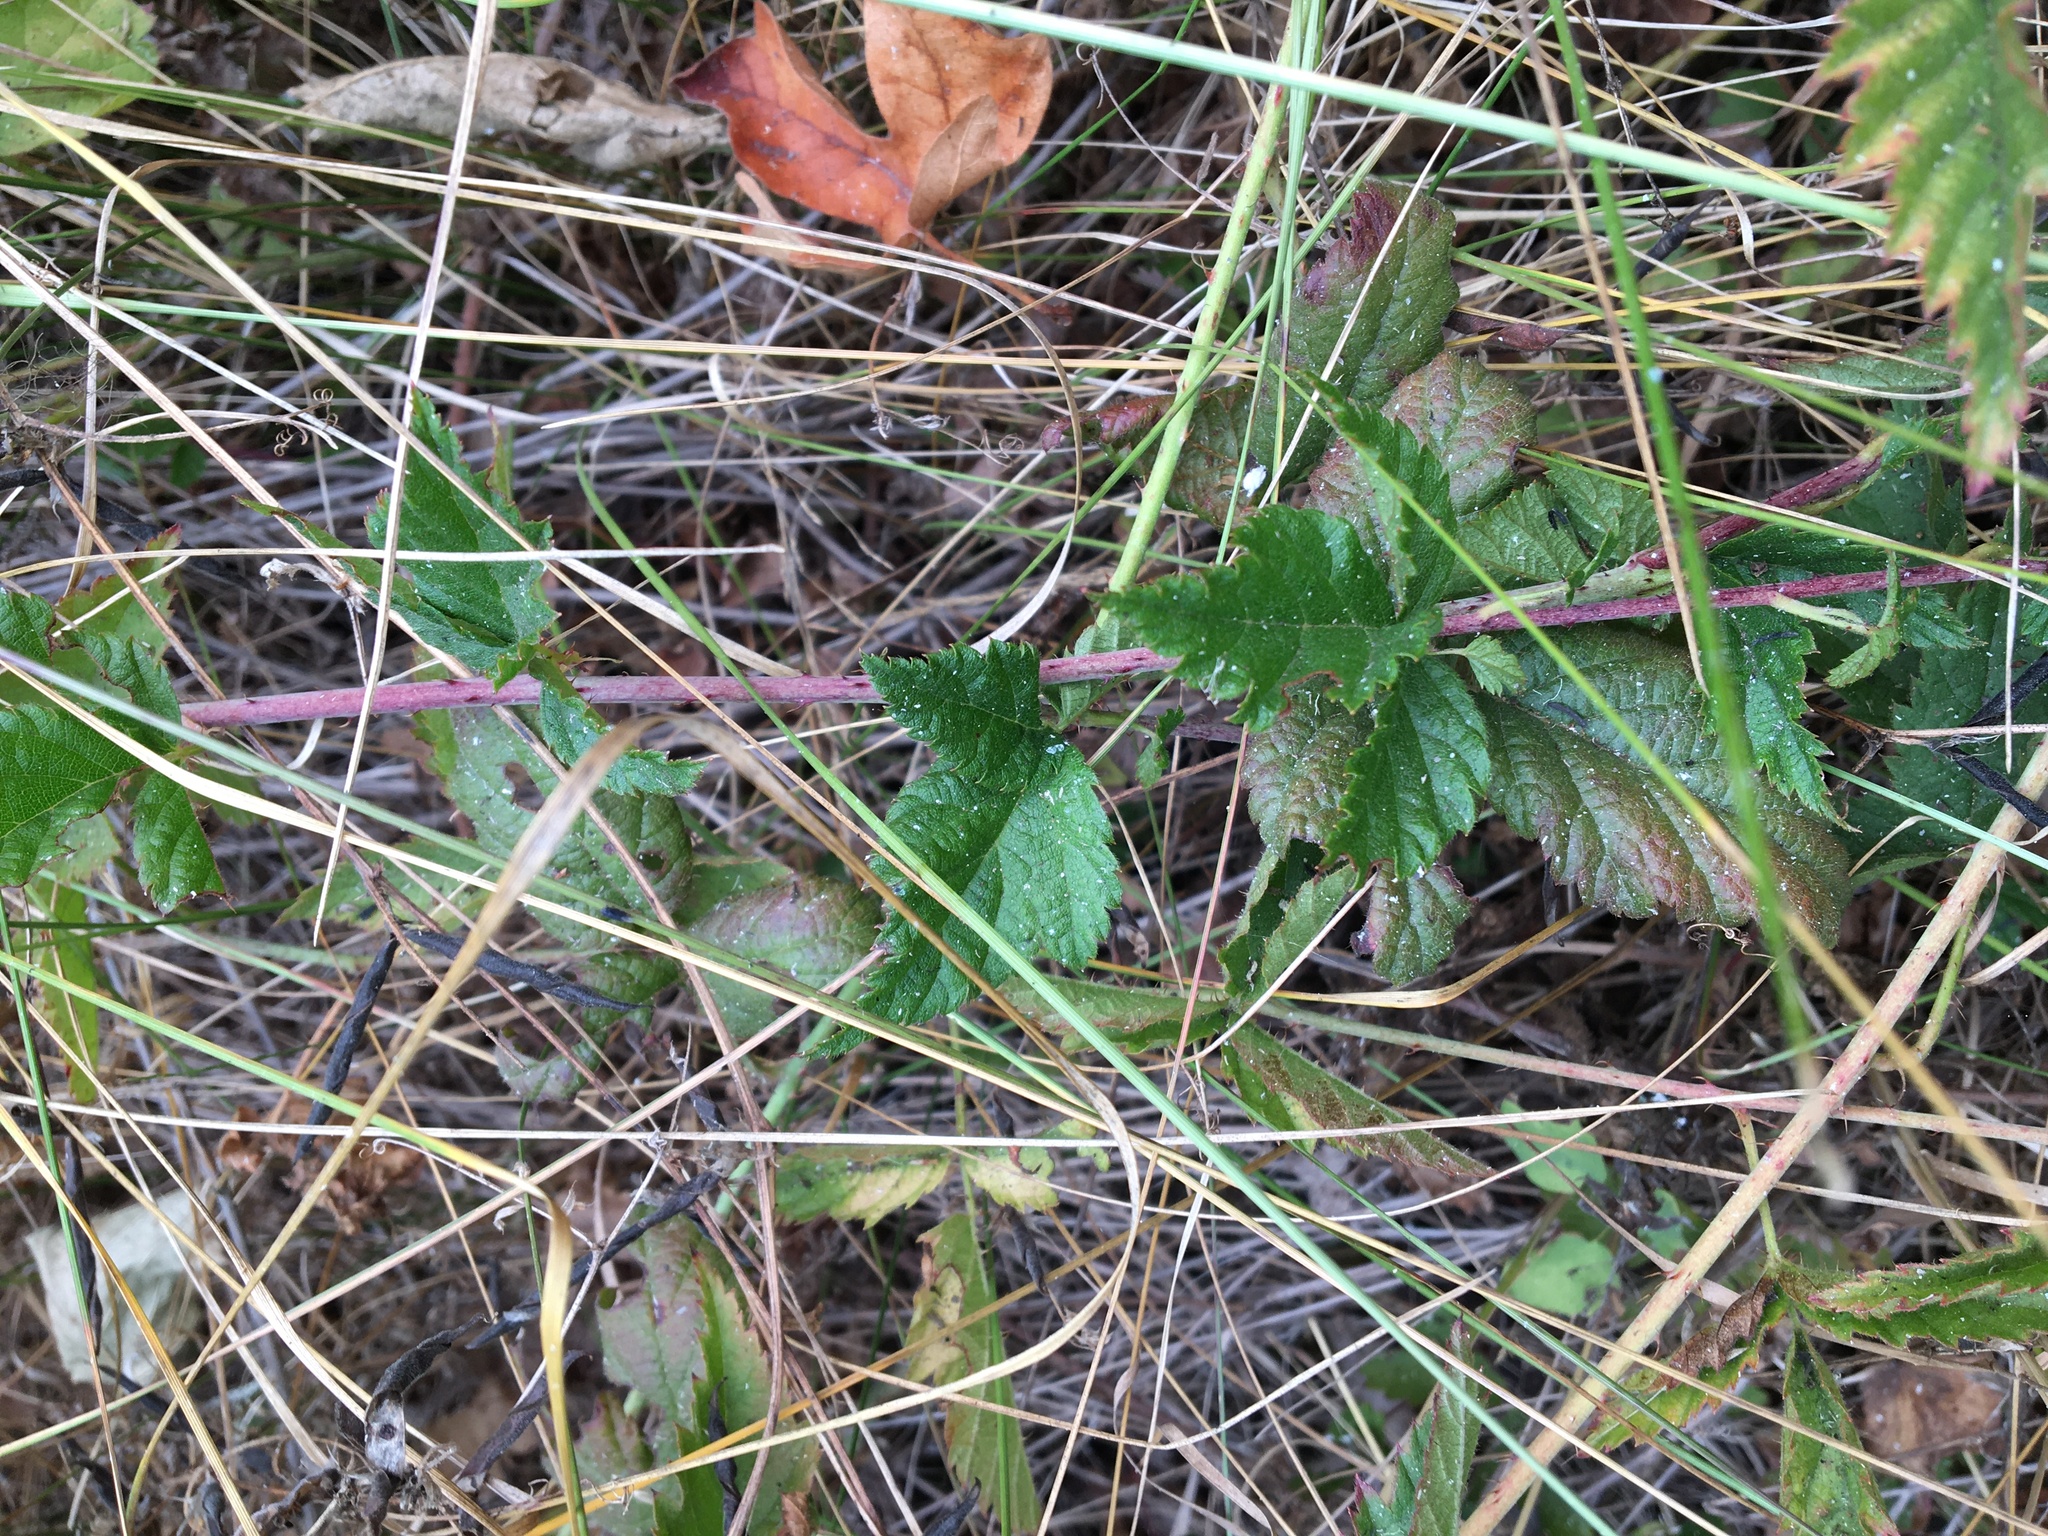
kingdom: Plantae
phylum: Tracheophyta
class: Magnoliopsida
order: Rosales
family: Rosaceae
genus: Rubus
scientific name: Rubus ursinus
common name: Pacific blackberry
